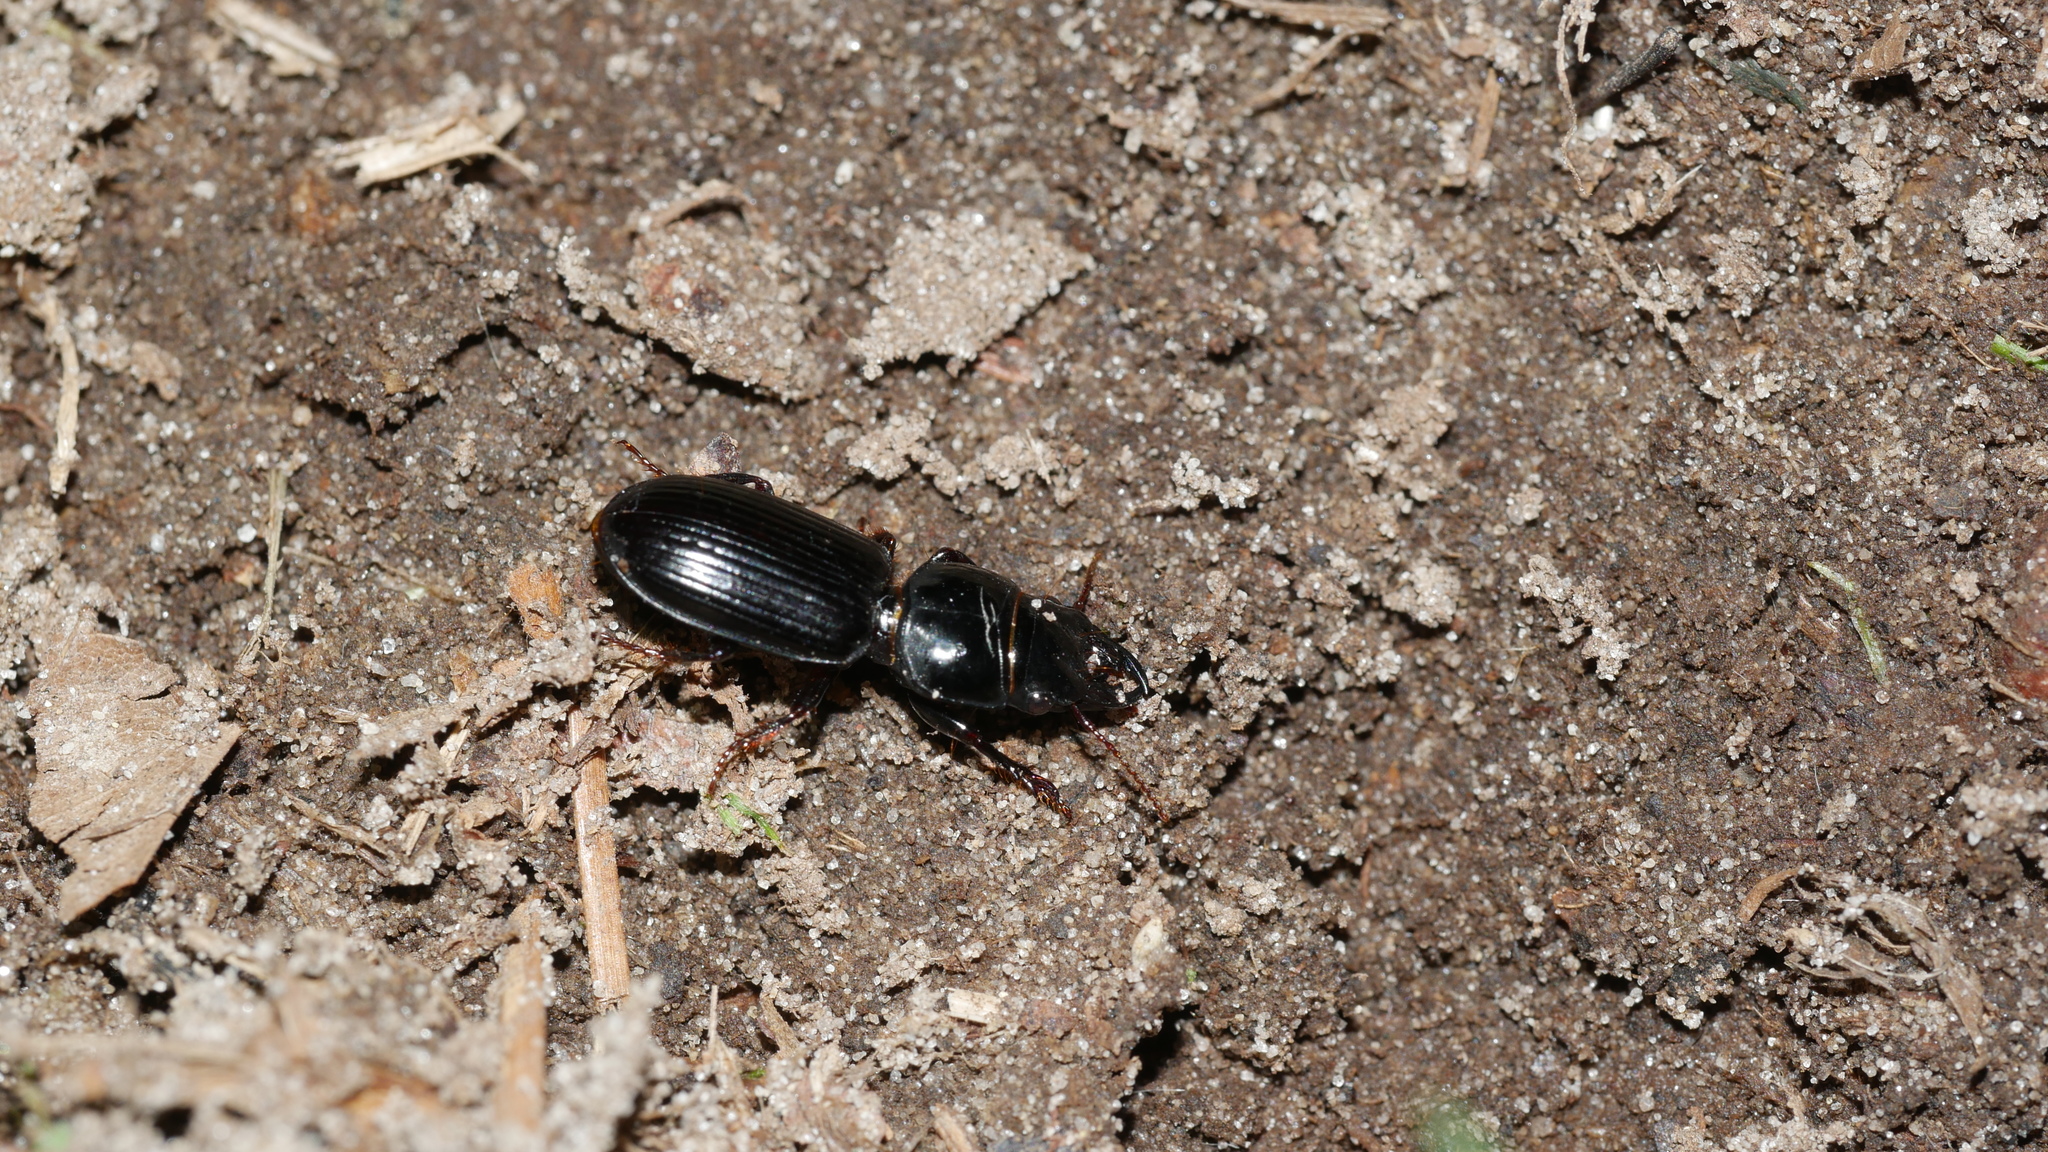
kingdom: Animalia
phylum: Arthropoda
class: Insecta
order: Coleoptera
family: Carabidae
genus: Scarites
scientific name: Scarites subterraneus
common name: Big-headed ground beetle
